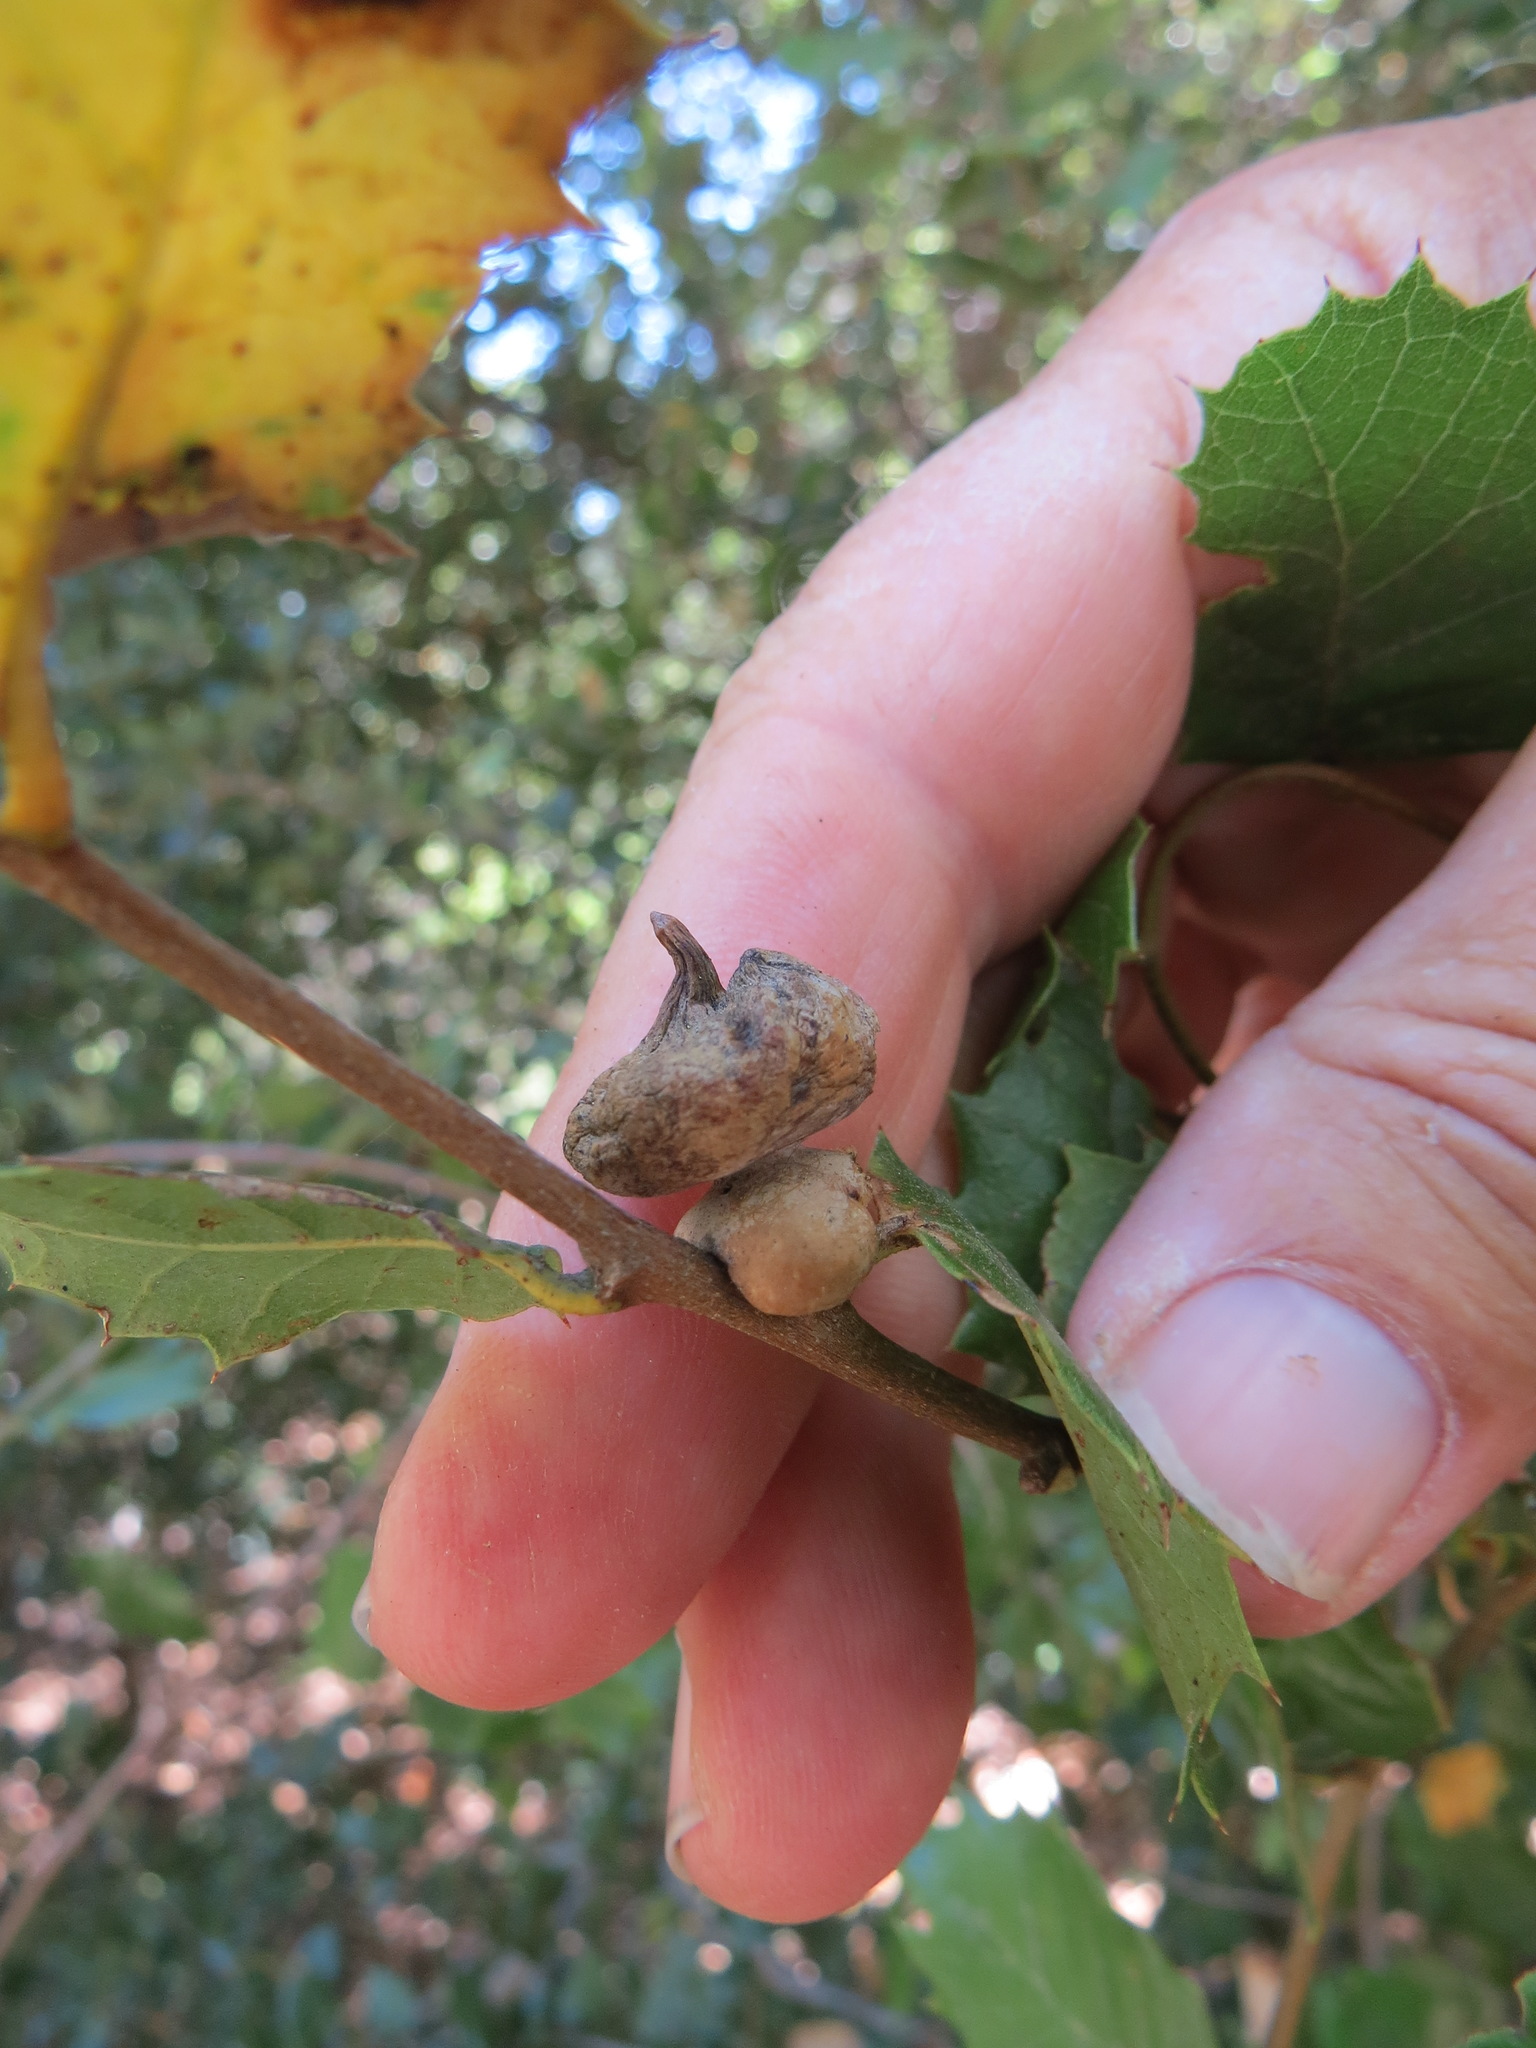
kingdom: Animalia
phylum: Arthropoda
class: Insecta
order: Hymenoptera
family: Cynipidae
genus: Heteroecus
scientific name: Heteroecus
